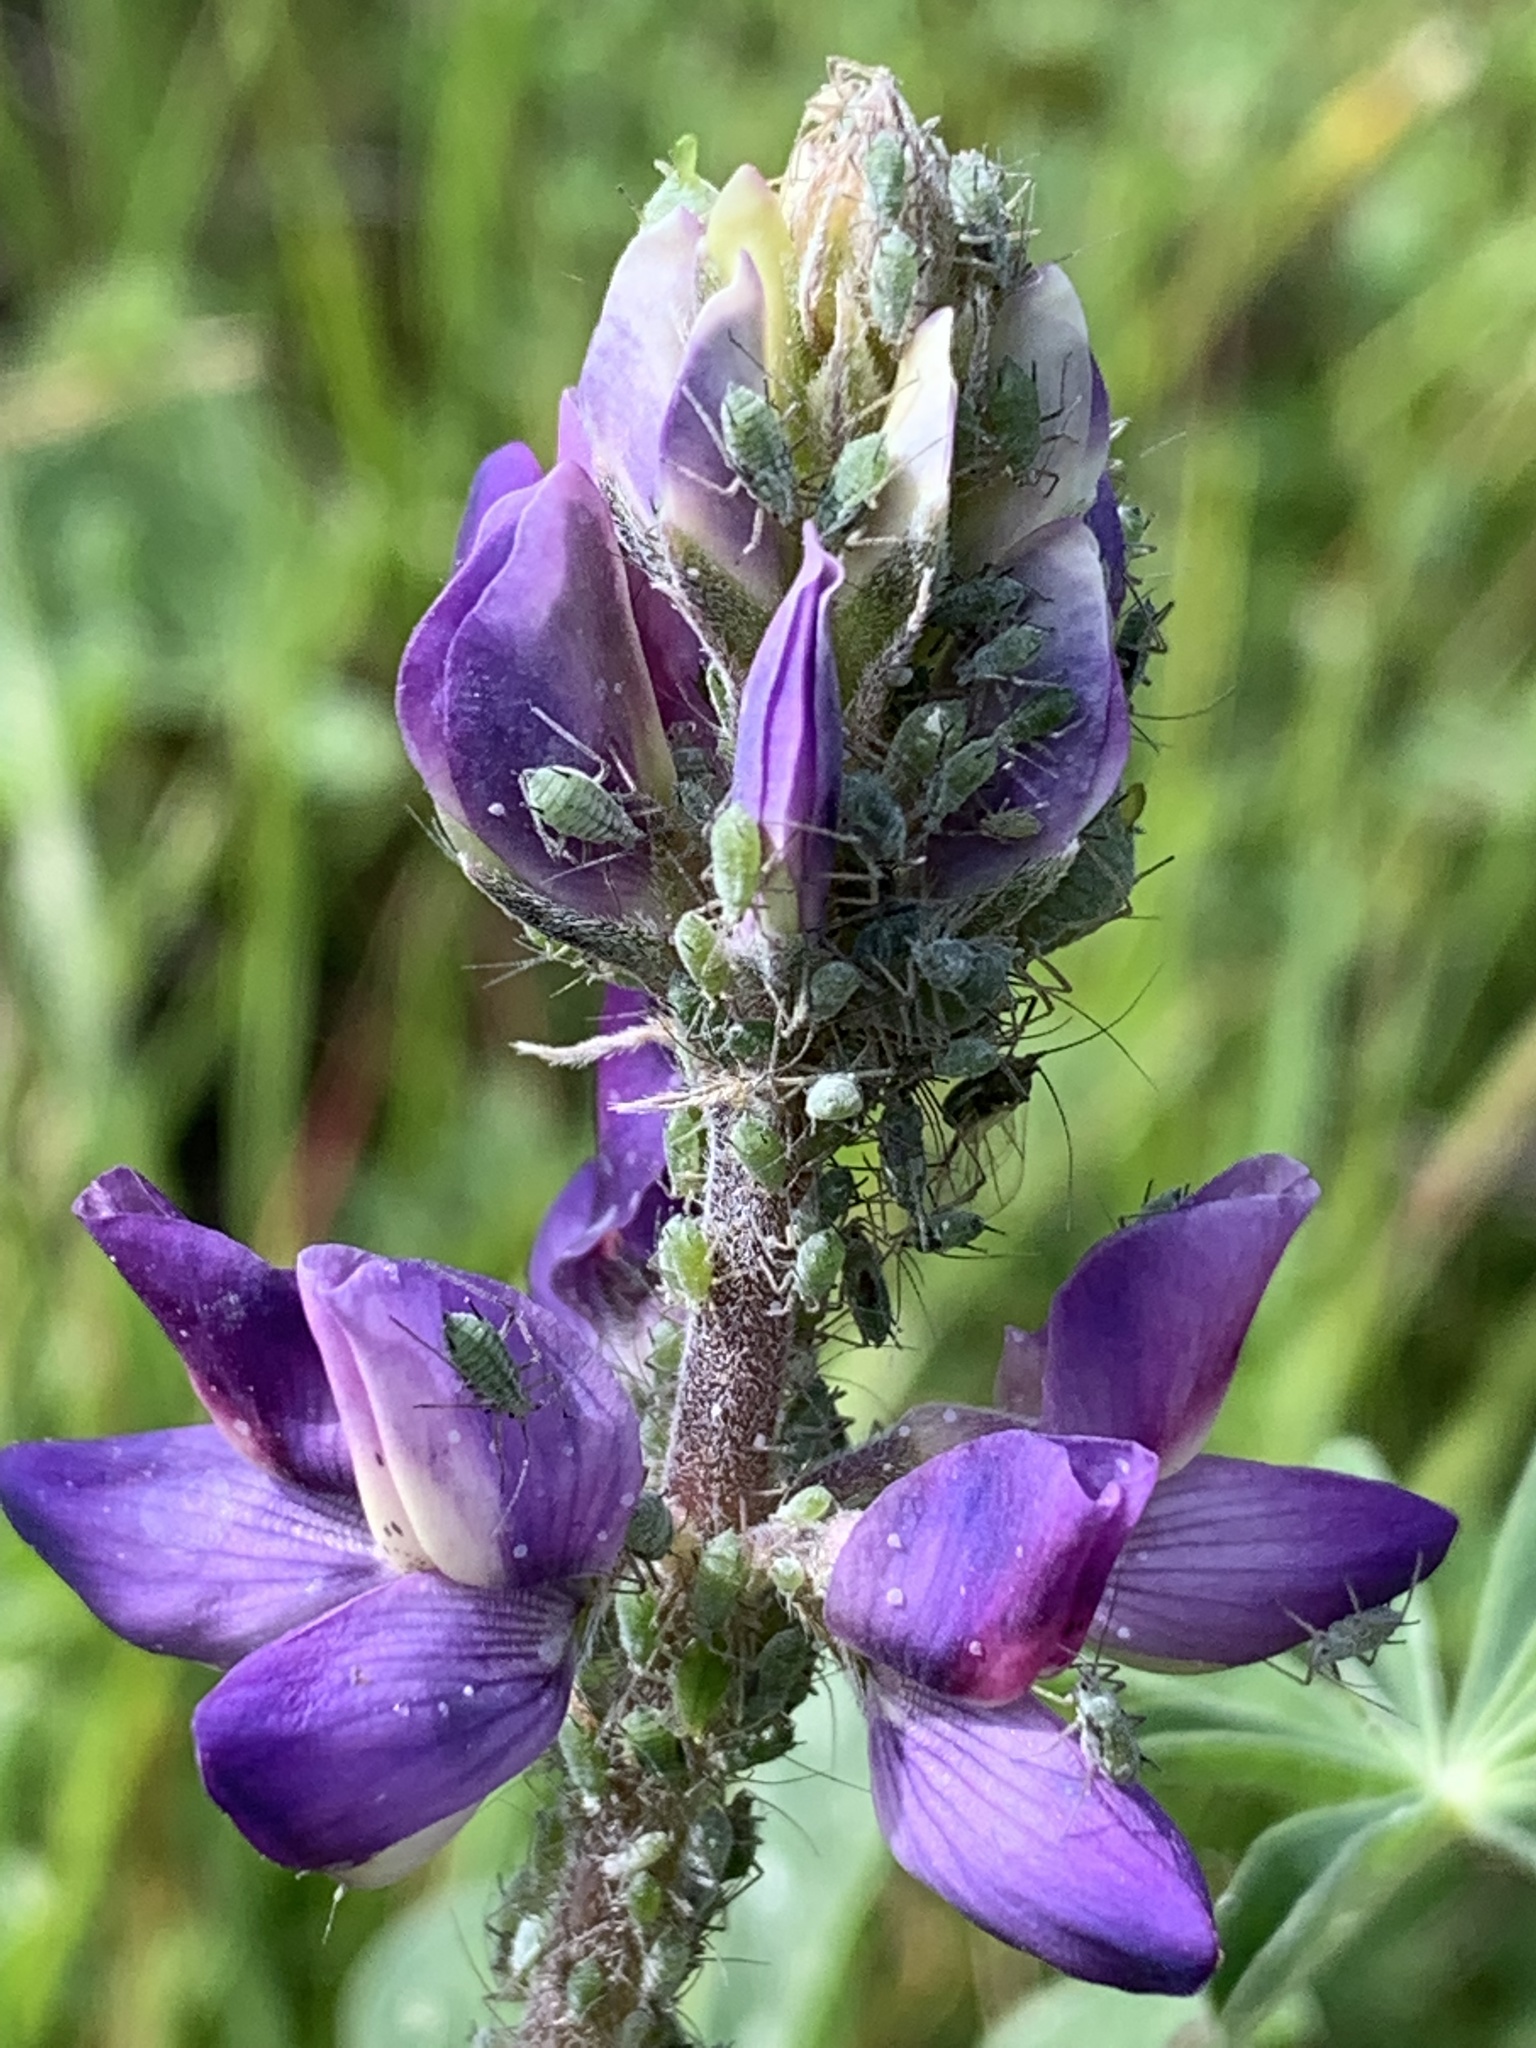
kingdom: Animalia
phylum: Arthropoda
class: Insecta
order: Hemiptera
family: Aphididae
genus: Macrosiphum
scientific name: Macrosiphum albifrons
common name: Lupine aphid
